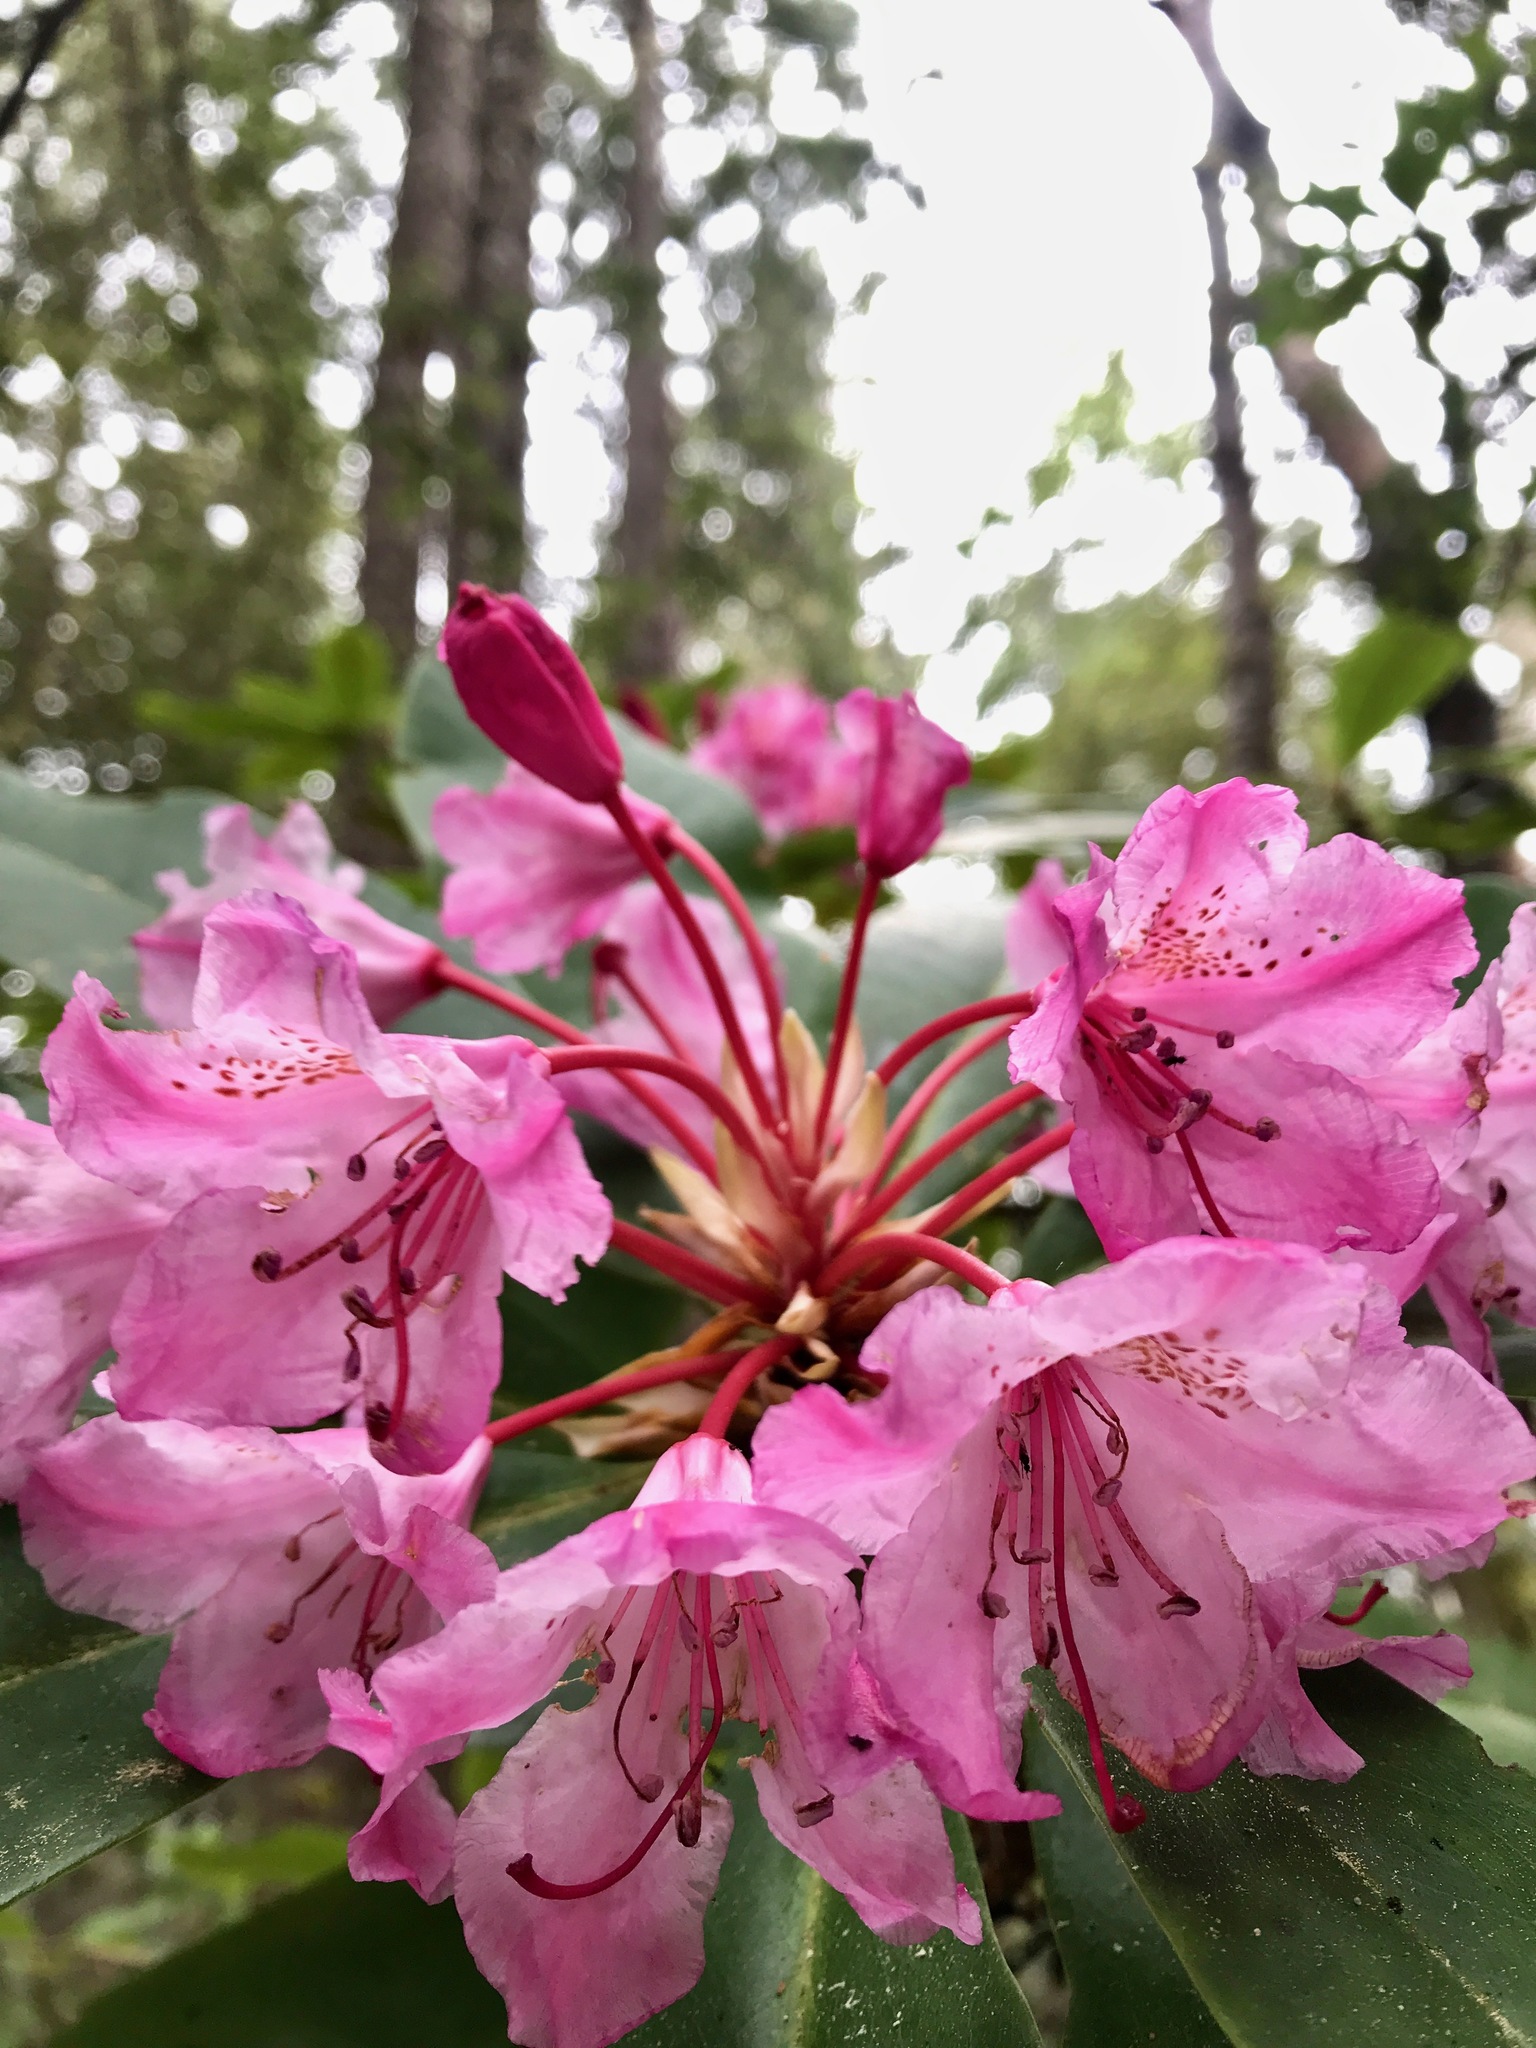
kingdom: Plantae
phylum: Tracheophyta
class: Magnoliopsida
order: Ericales
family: Ericaceae
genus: Rhododendron
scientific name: Rhododendron macrophyllum
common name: California rose bay
